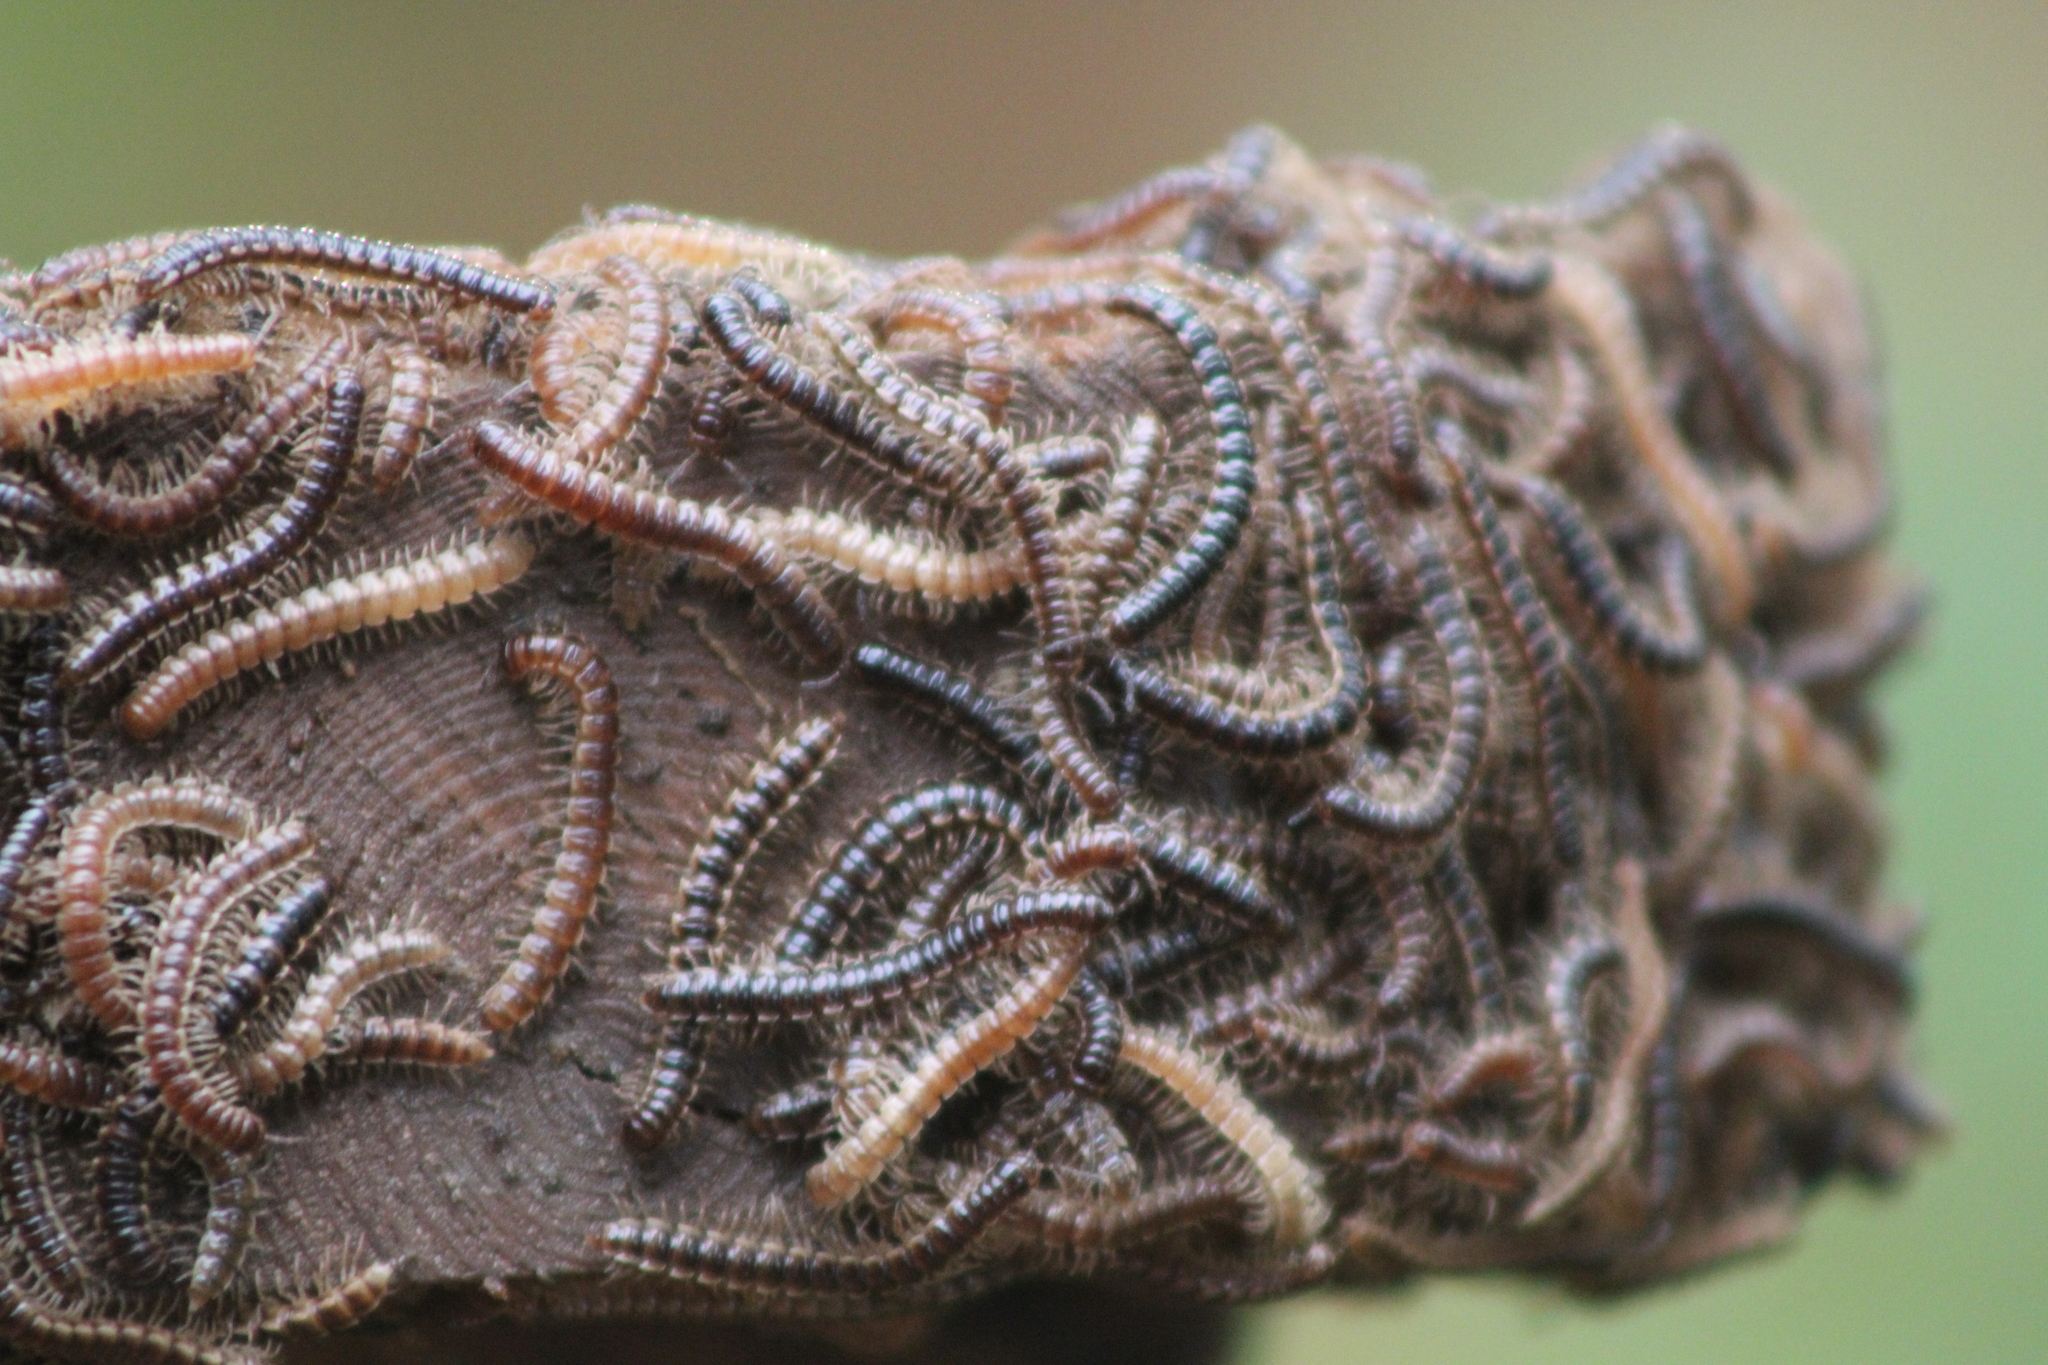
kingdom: Animalia
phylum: Arthropoda
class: Diplopoda
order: Polydesmida
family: Paradoxosomatidae
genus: Oxidus
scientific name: Oxidus gracilis
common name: Greenhouse millipede
